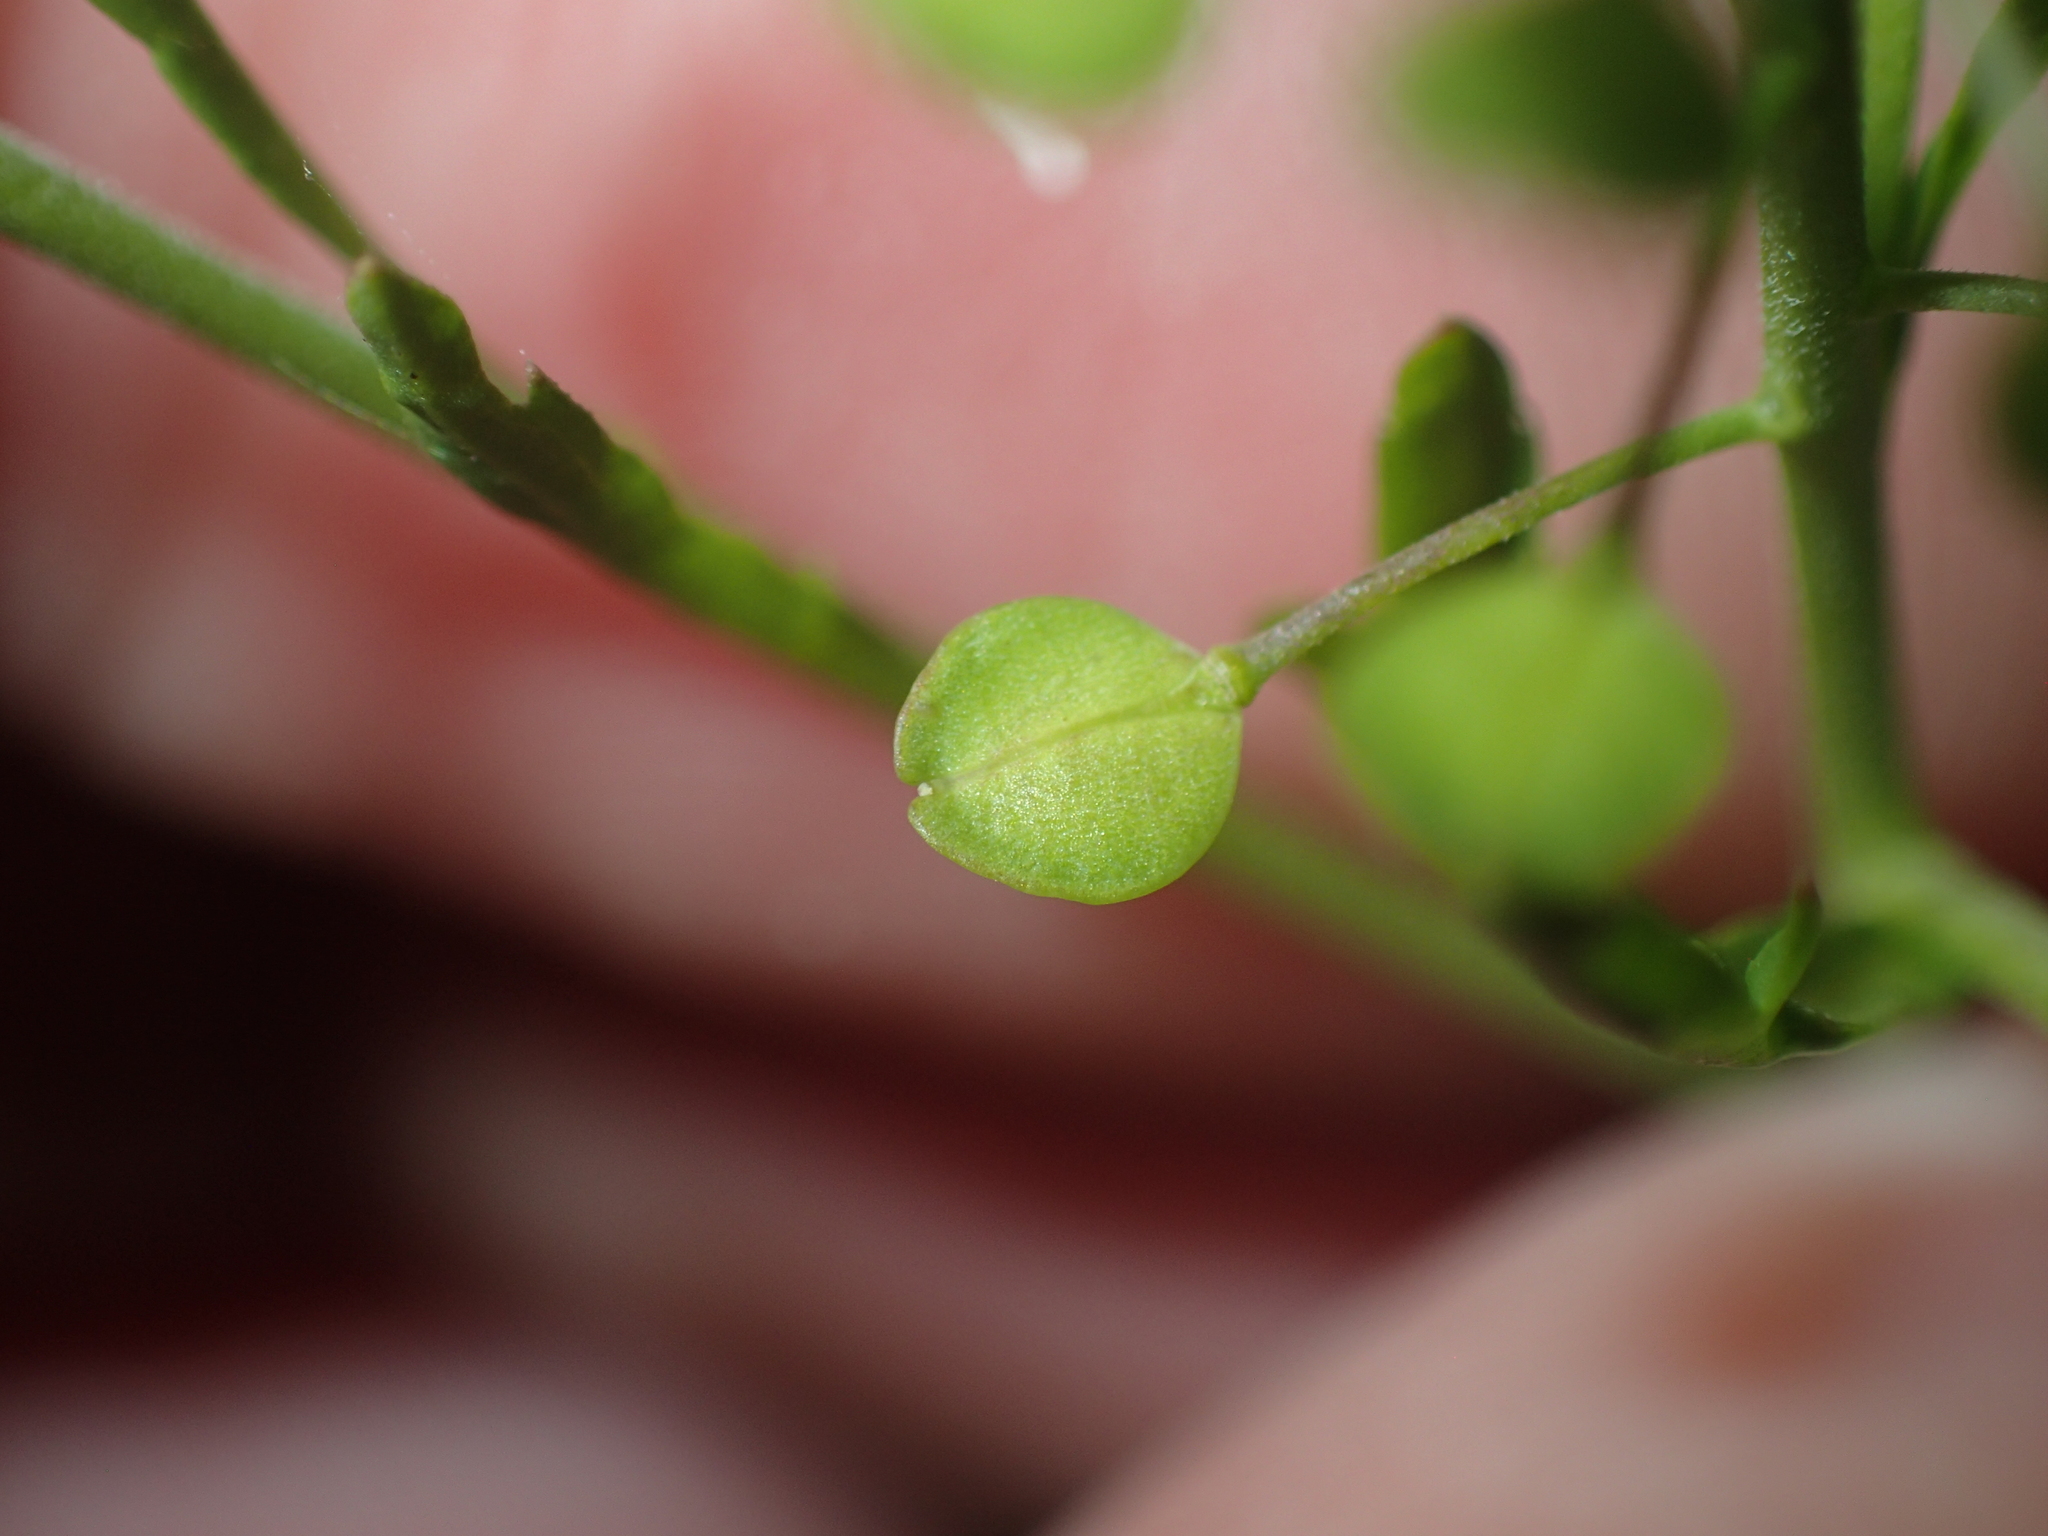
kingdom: Plantae
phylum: Tracheophyta
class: Magnoliopsida
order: Brassicales
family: Brassicaceae
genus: Lepidium
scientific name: Lepidium virginicum
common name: Least pepperwort
